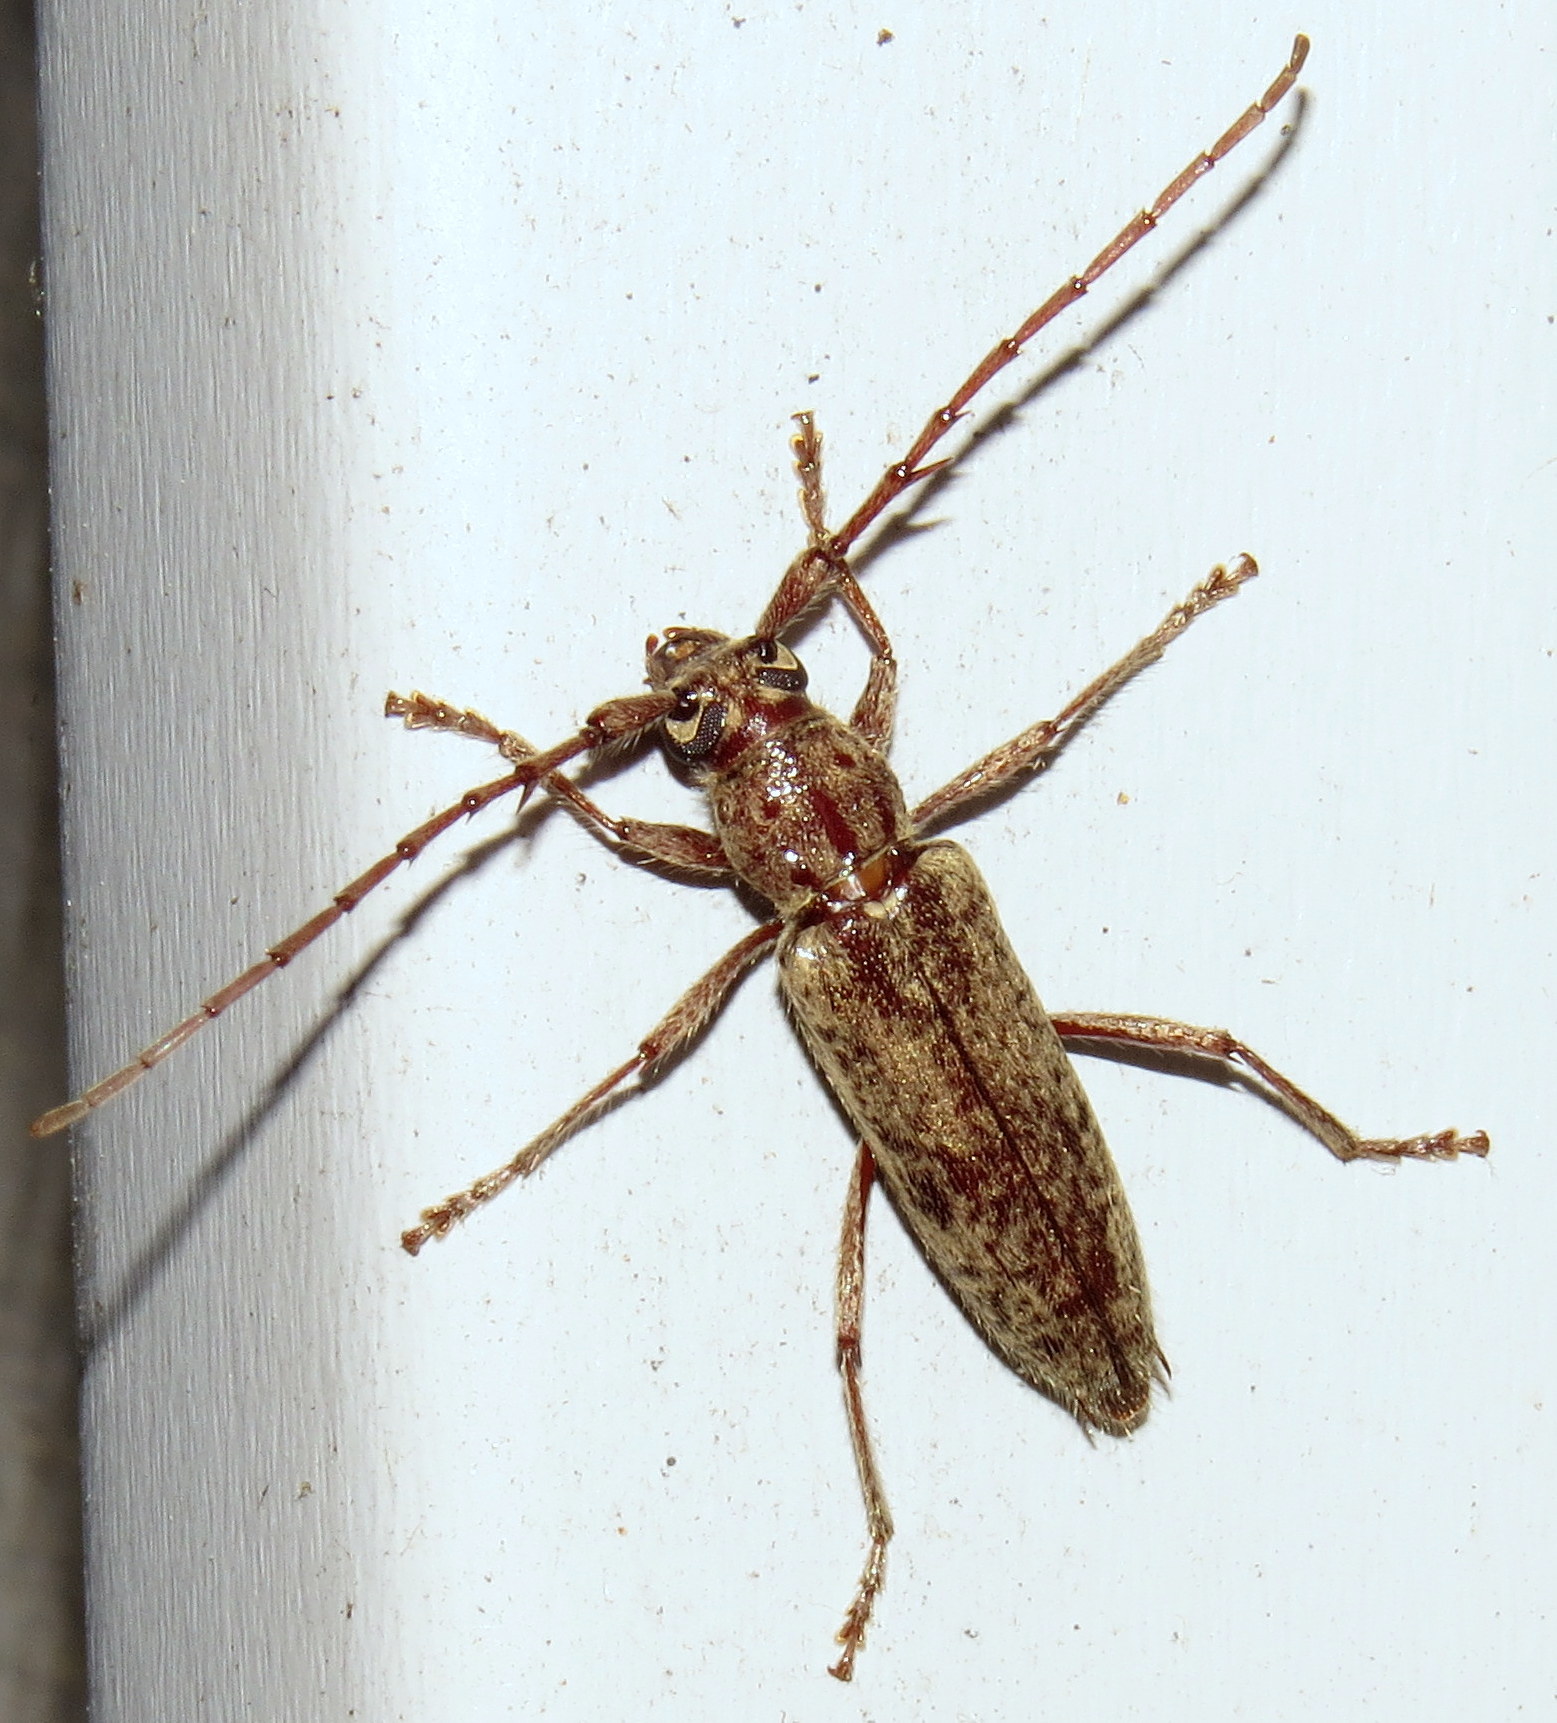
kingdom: Animalia
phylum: Arthropoda
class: Insecta
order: Coleoptera
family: Cerambycidae
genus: Elaphidion
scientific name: Elaphidion mucronatum
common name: Spined oak borer
